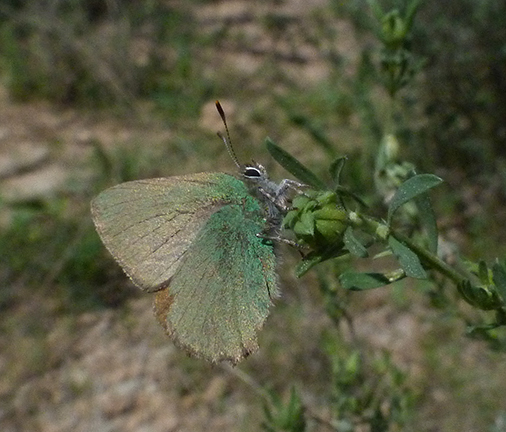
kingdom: Animalia
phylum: Arthropoda
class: Insecta
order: Lepidoptera
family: Lycaenidae
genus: Callophrys
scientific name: Callophrys rubi
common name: Green hairstreak
